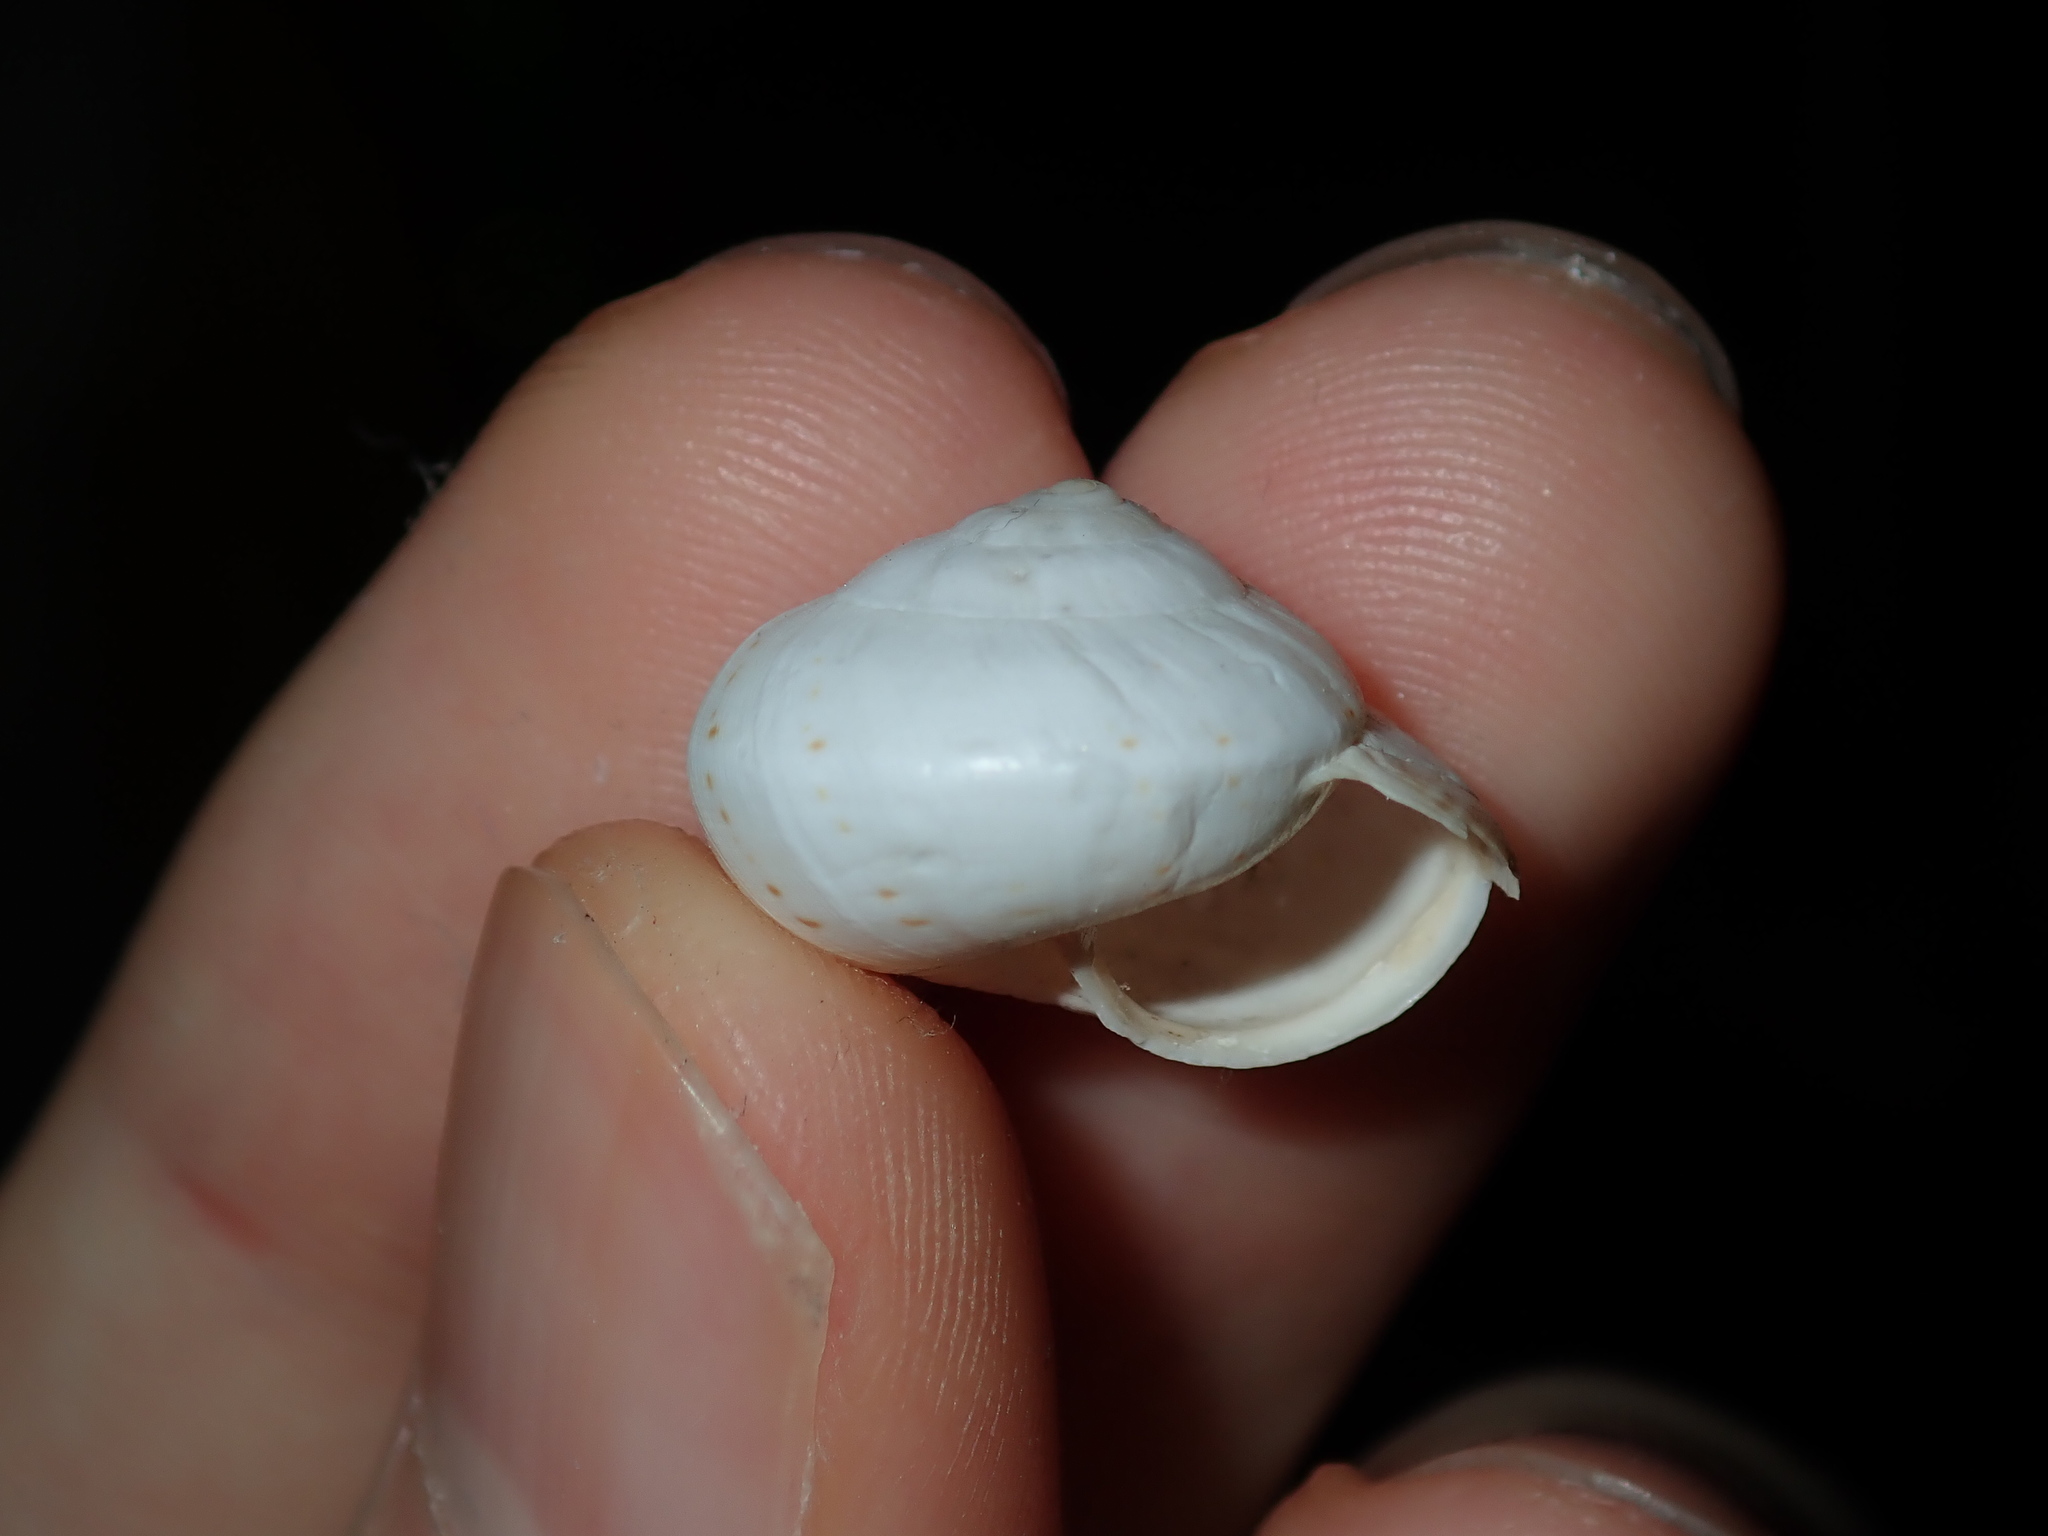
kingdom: Animalia
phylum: Mollusca
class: Gastropoda
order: Stylommatophora
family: Helicidae
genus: Theba
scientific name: Theba pisana
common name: White snail
